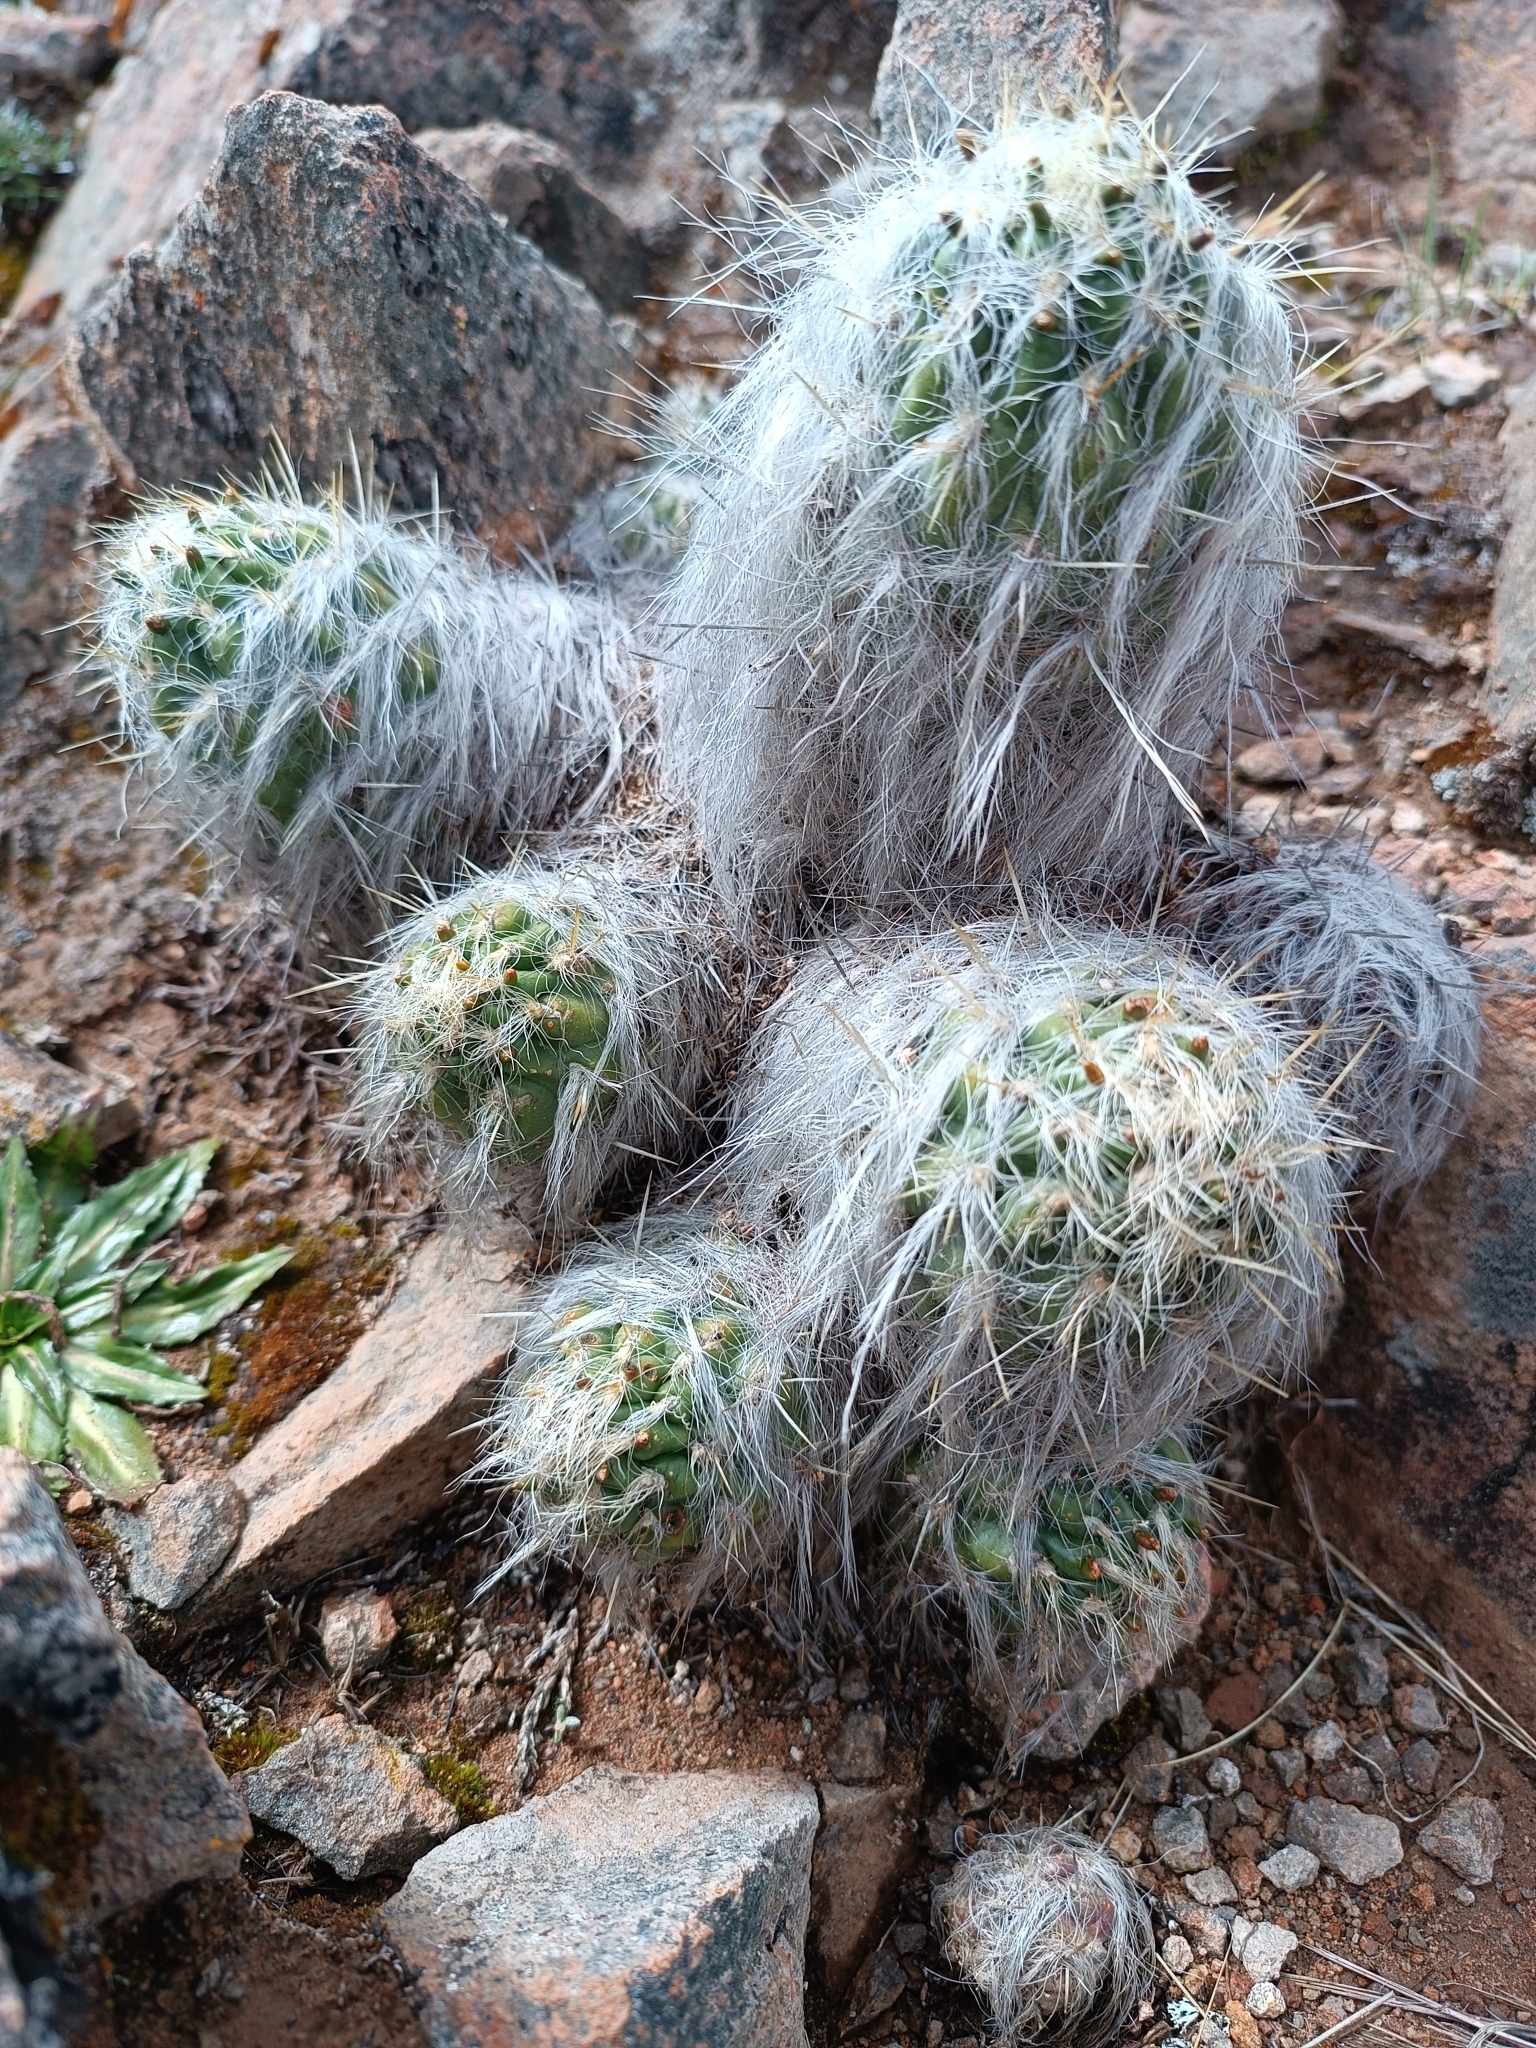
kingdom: Plantae
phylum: Tracheophyta
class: Magnoliopsida
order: Caryophyllales
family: Cactaceae
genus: Austrocylindropuntia
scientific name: Austrocylindropuntia floccosa
